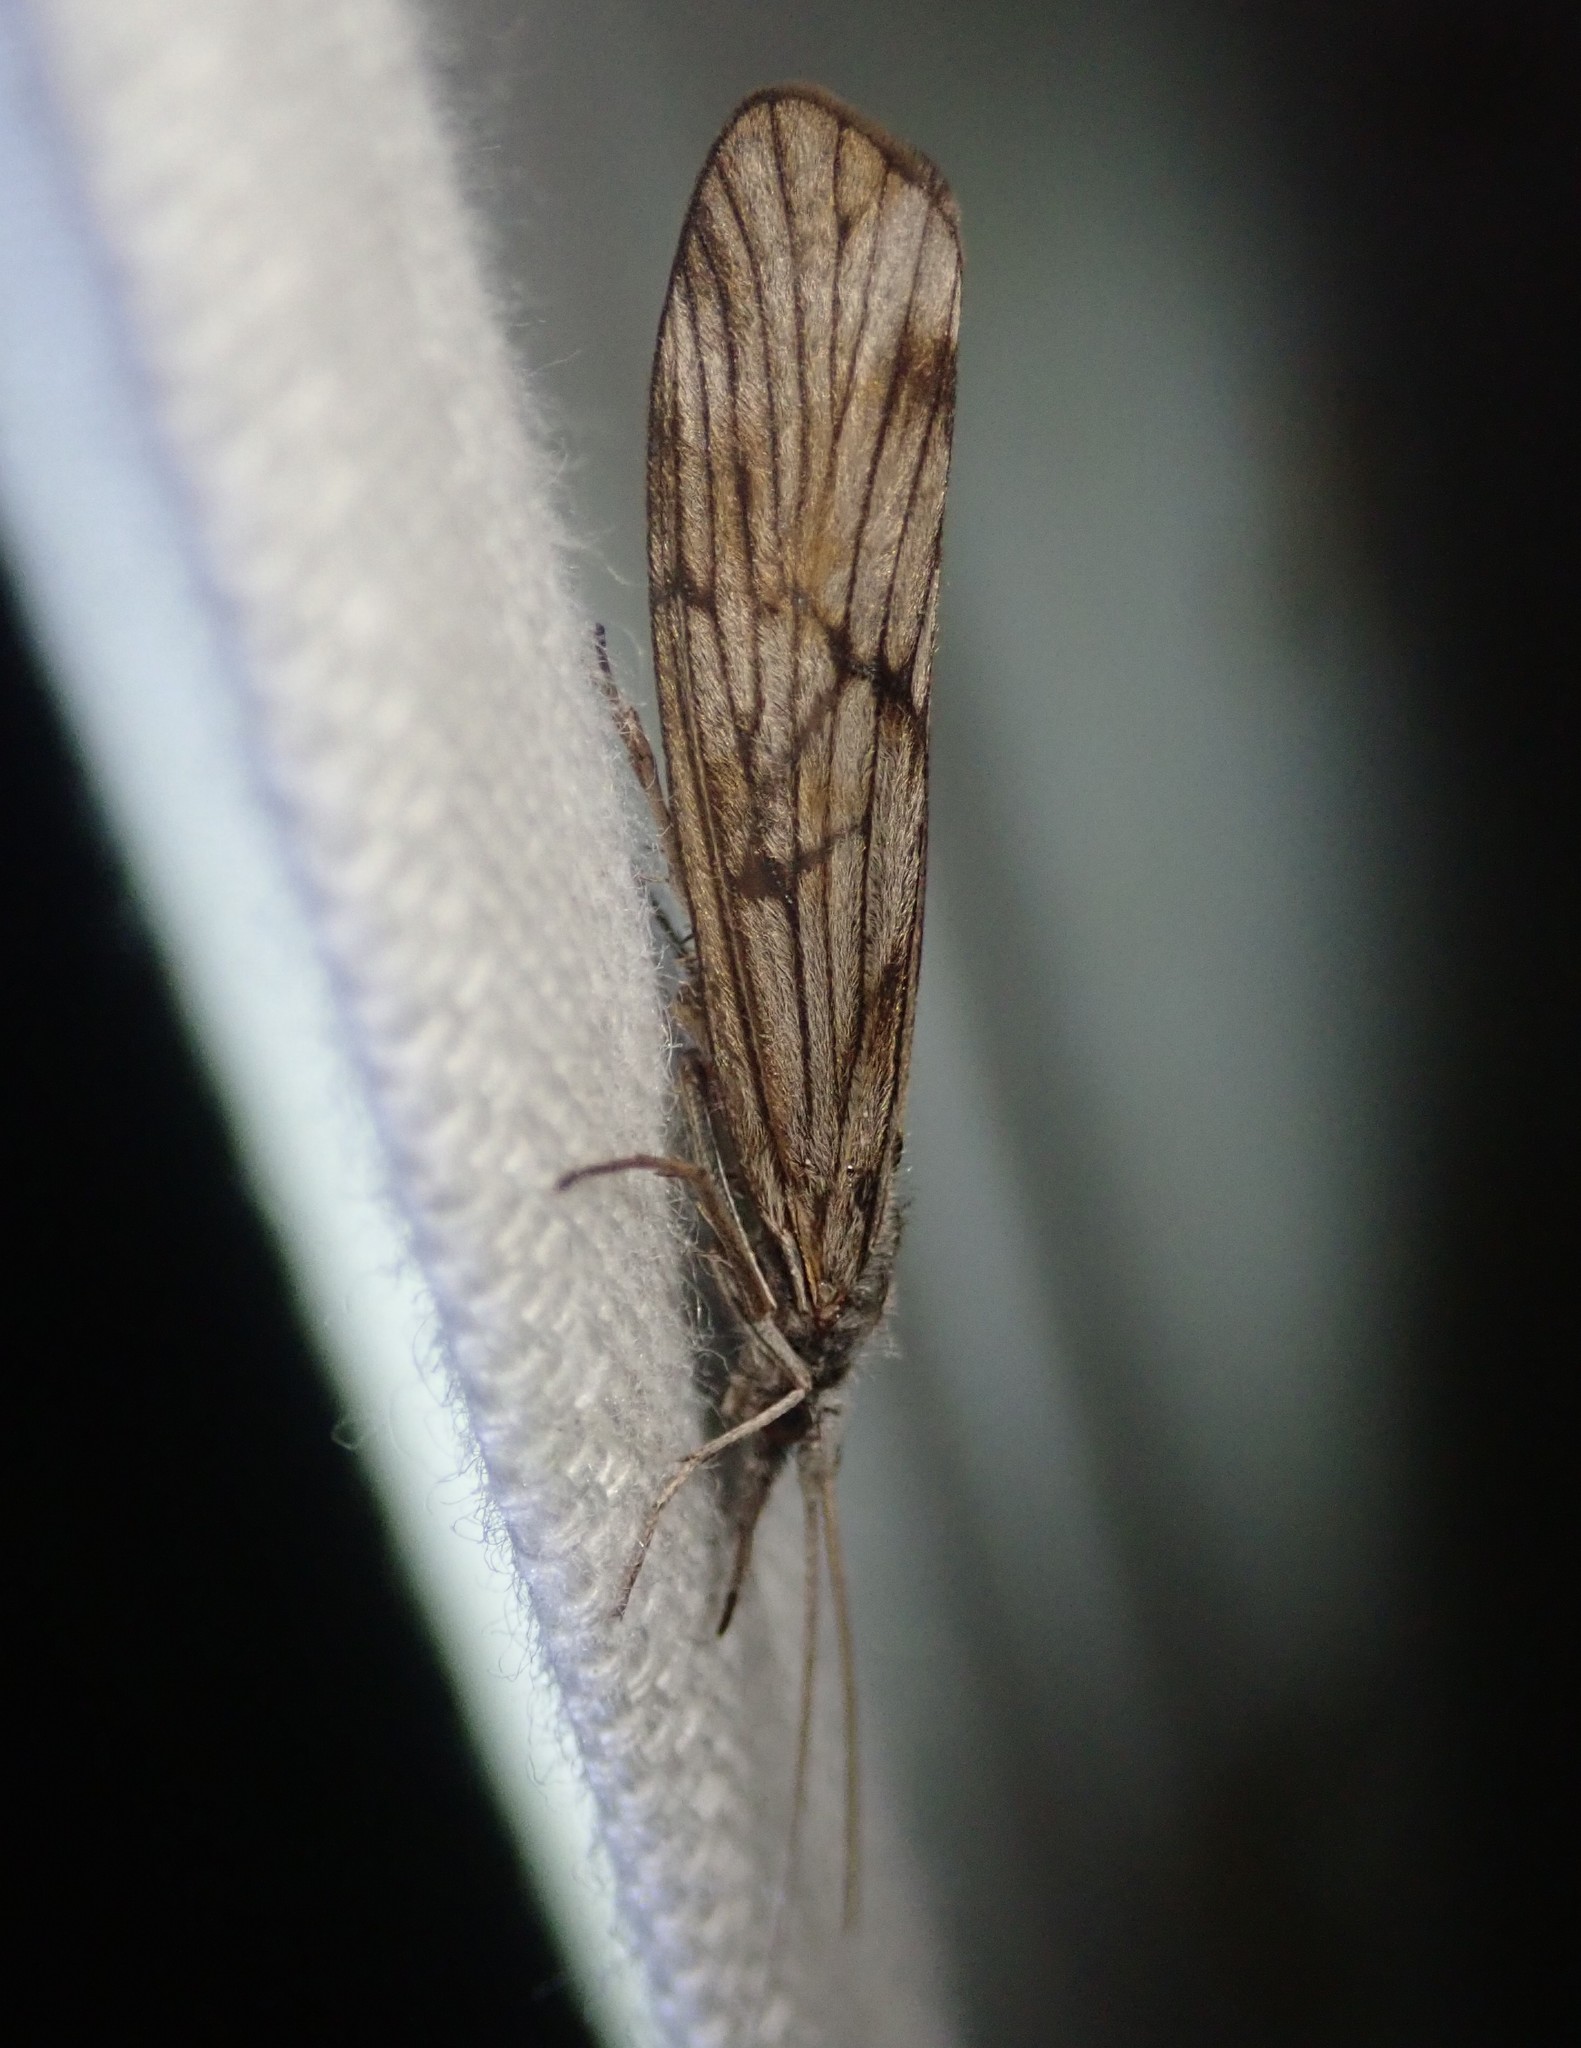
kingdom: Animalia
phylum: Arthropoda
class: Insecta
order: Trichoptera
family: Odontoceridae
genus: Odontocerum
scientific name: Odontocerum albicorne
